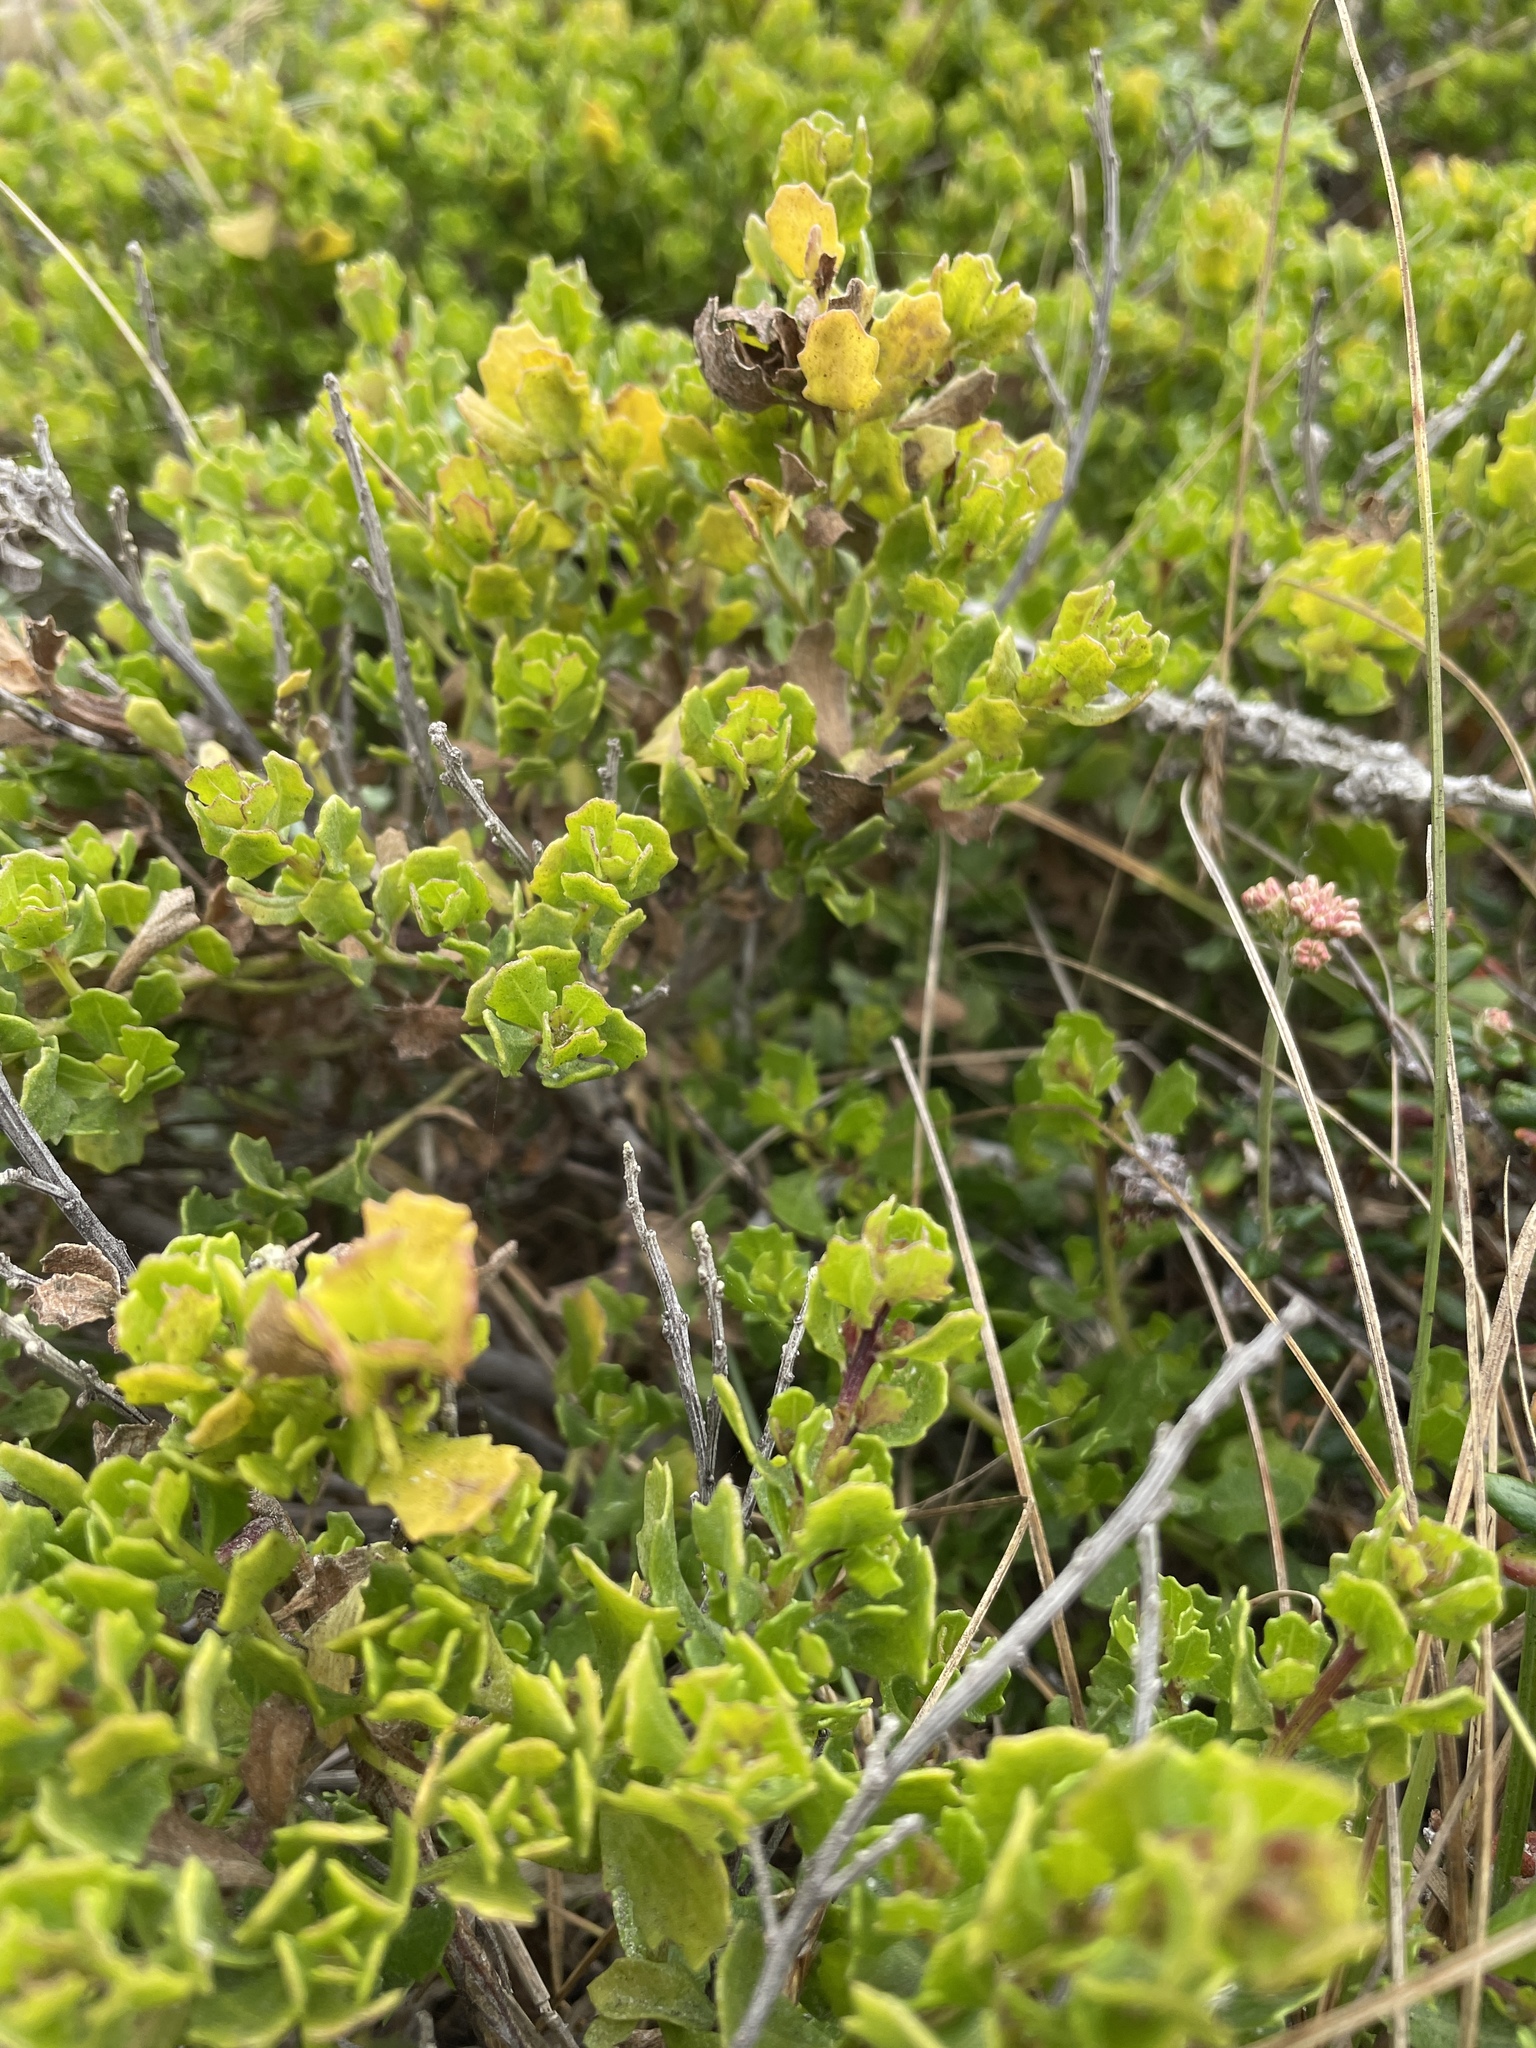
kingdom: Plantae
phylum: Tracheophyta
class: Magnoliopsida
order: Asterales
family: Asteraceae
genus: Baccharis
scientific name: Baccharis pilularis
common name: Coyotebrush
